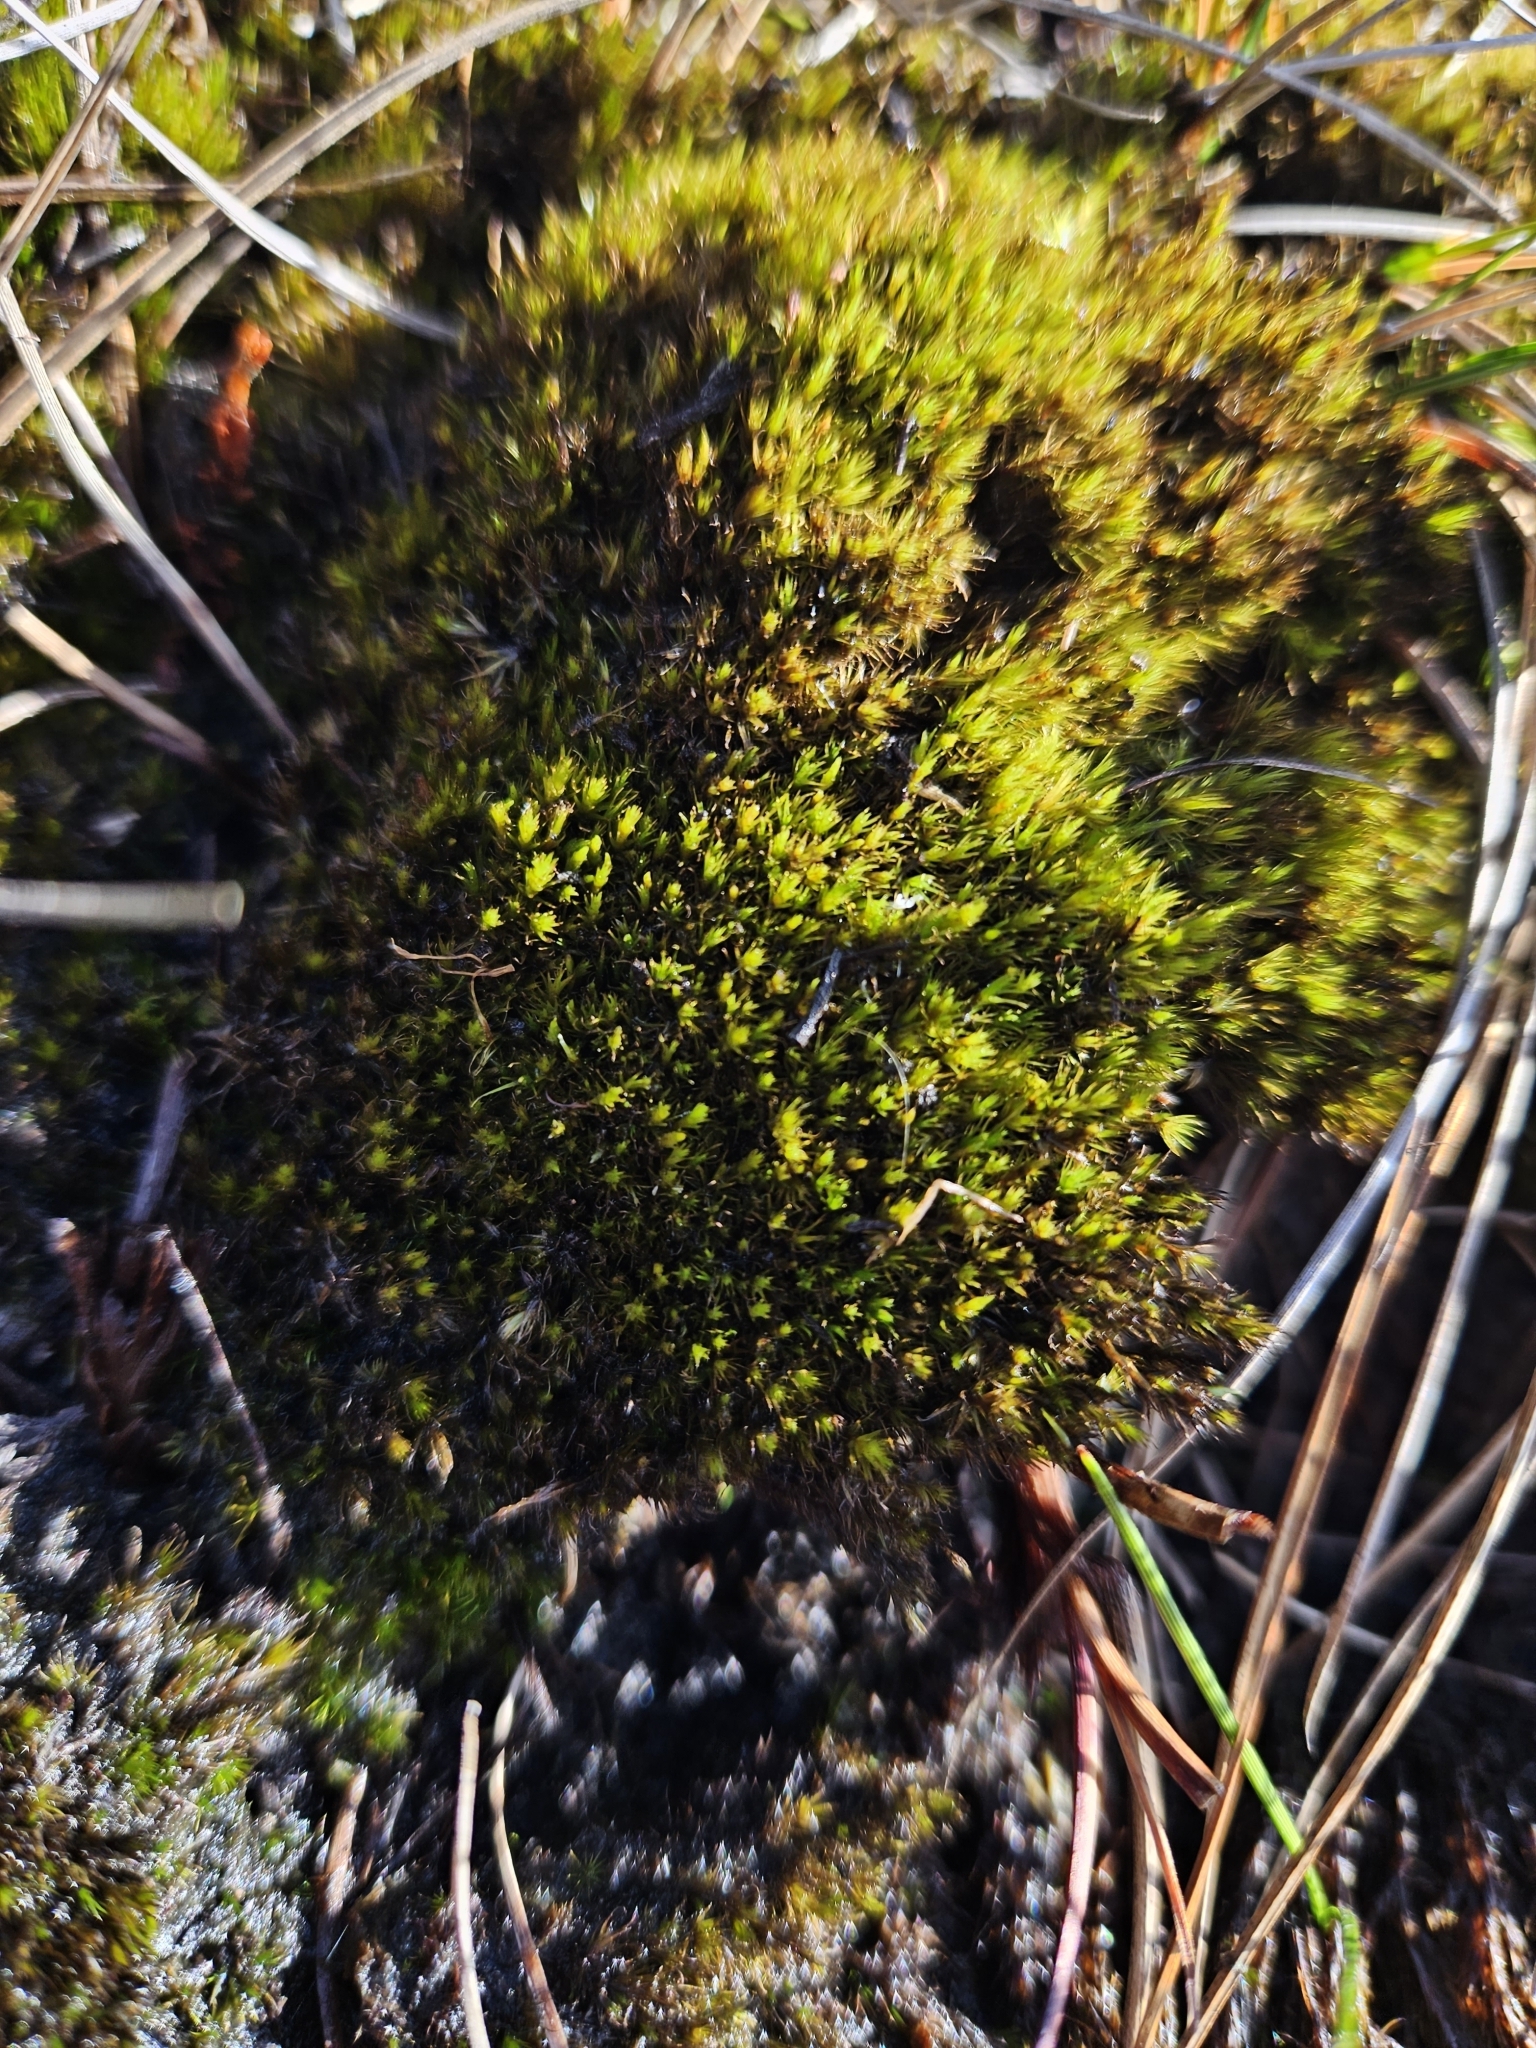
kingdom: Plantae
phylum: Bryophyta
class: Bryopsida
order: Dicranales
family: Leucobryaceae
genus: Campylopus
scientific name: Campylopus flexuosus
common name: Rusty swan-neck moss
